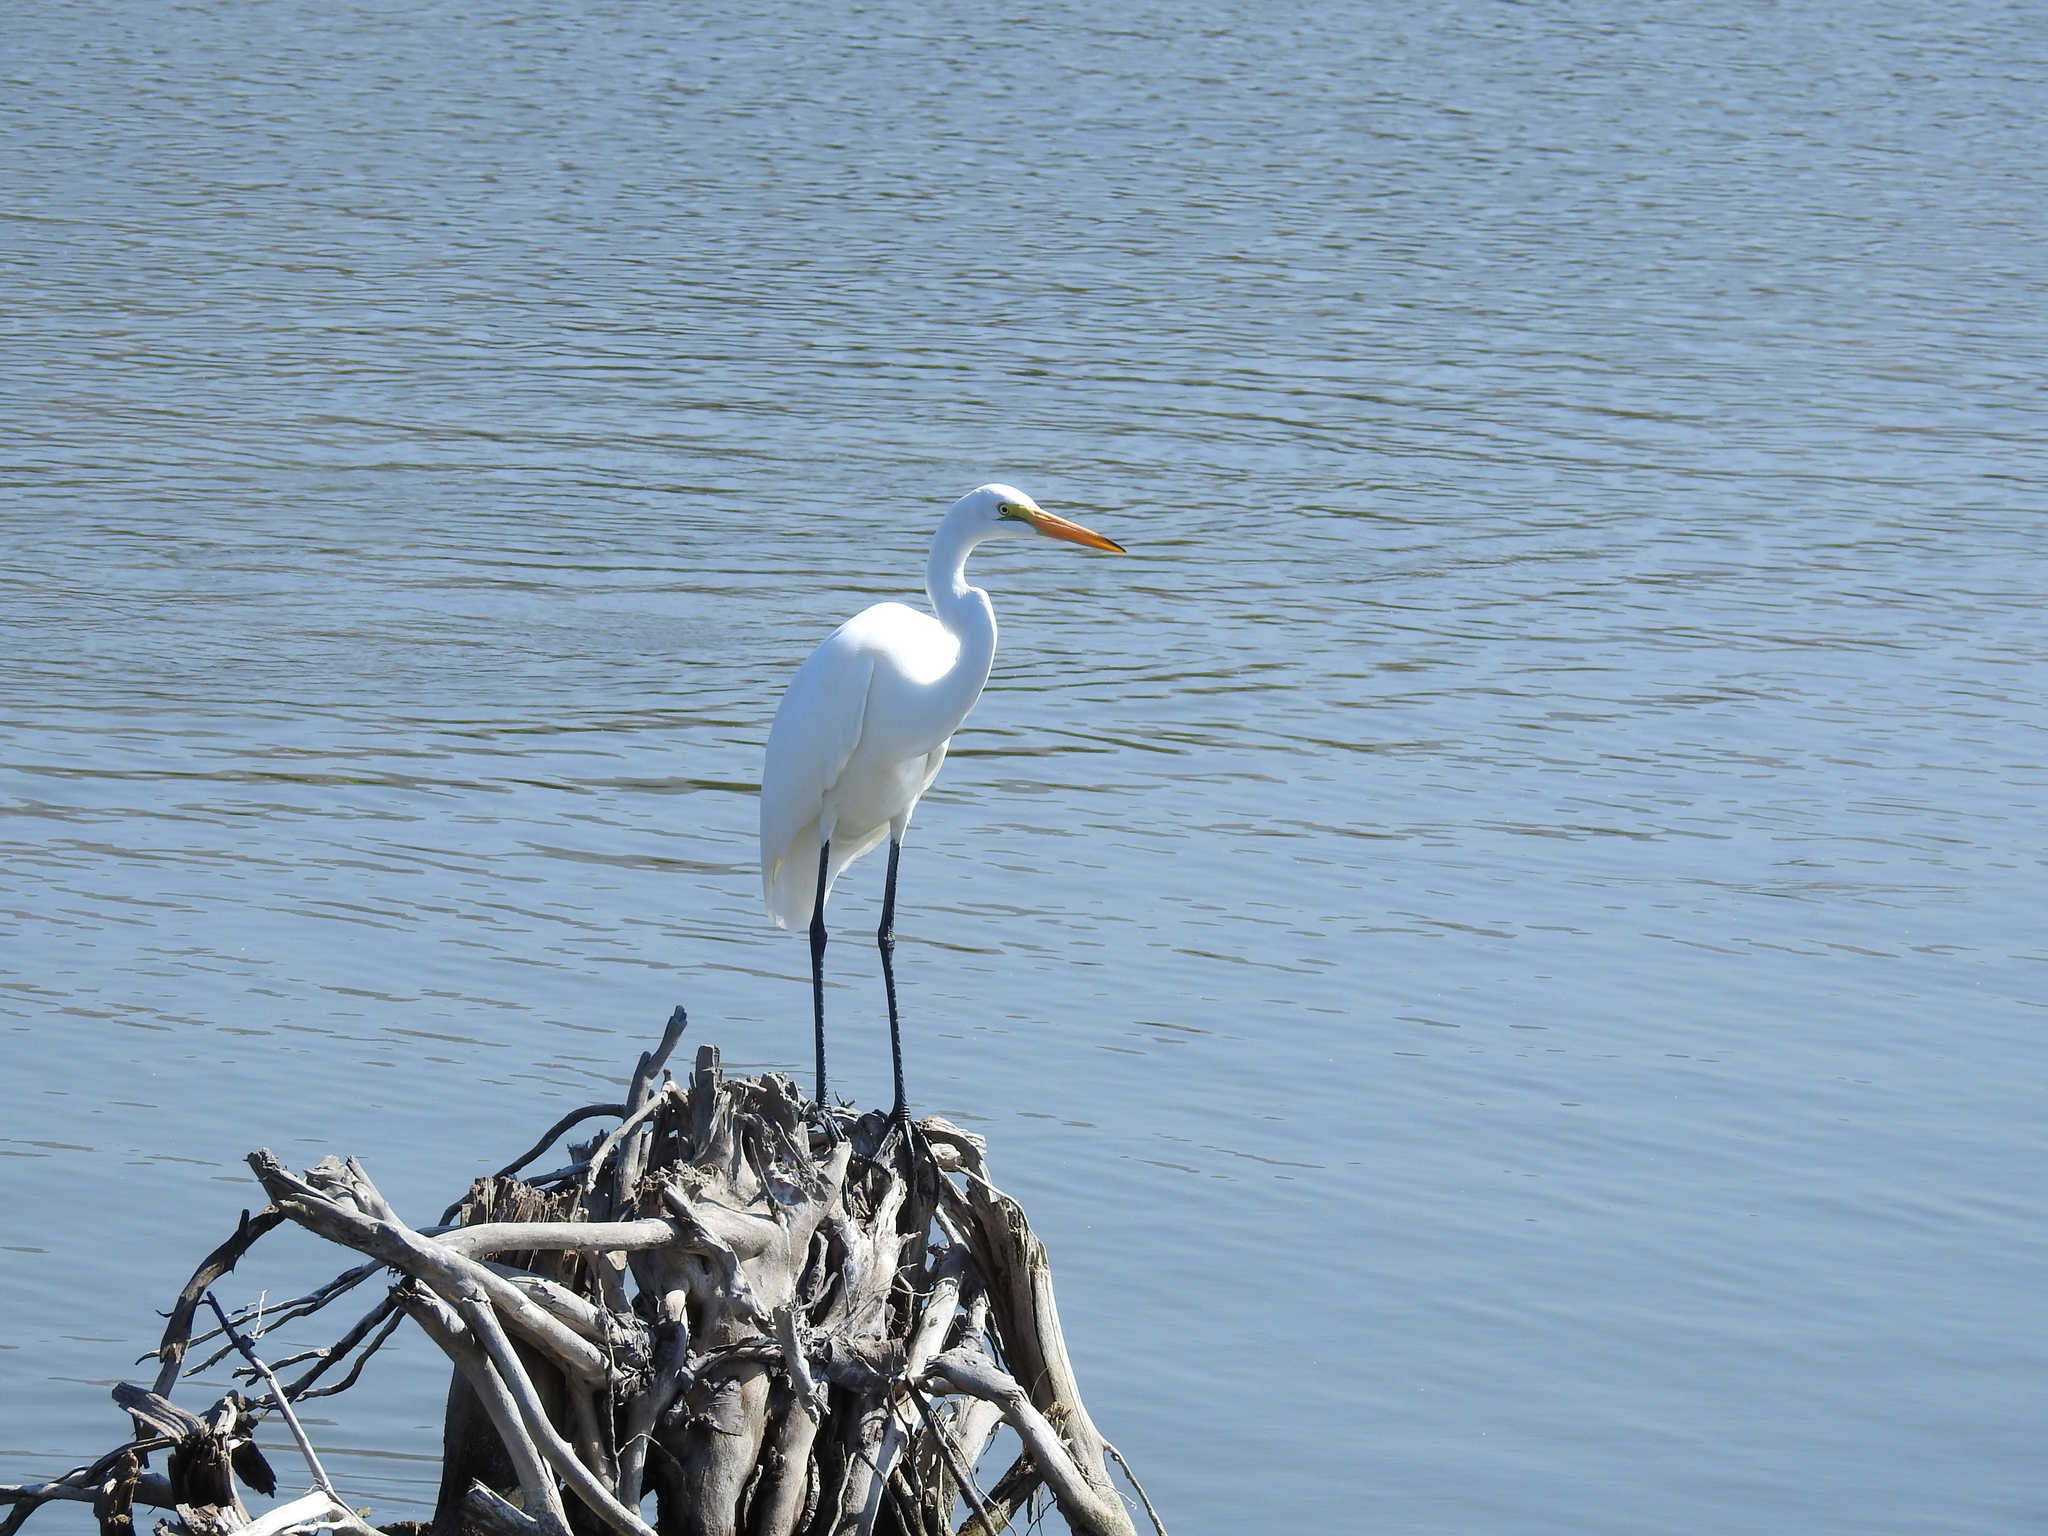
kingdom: Animalia
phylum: Chordata
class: Aves
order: Pelecaniformes
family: Ardeidae
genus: Ardea
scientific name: Ardea alba
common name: Great egret
